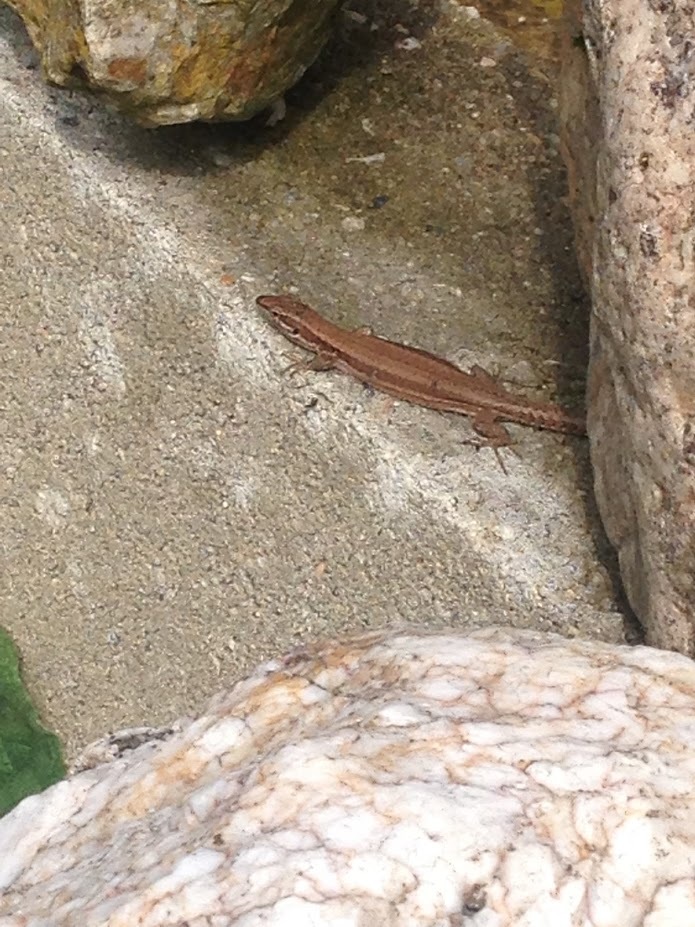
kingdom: Animalia
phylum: Chordata
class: Squamata
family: Lacertidae
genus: Podarcis
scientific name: Podarcis muralis
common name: Common wall lizard
